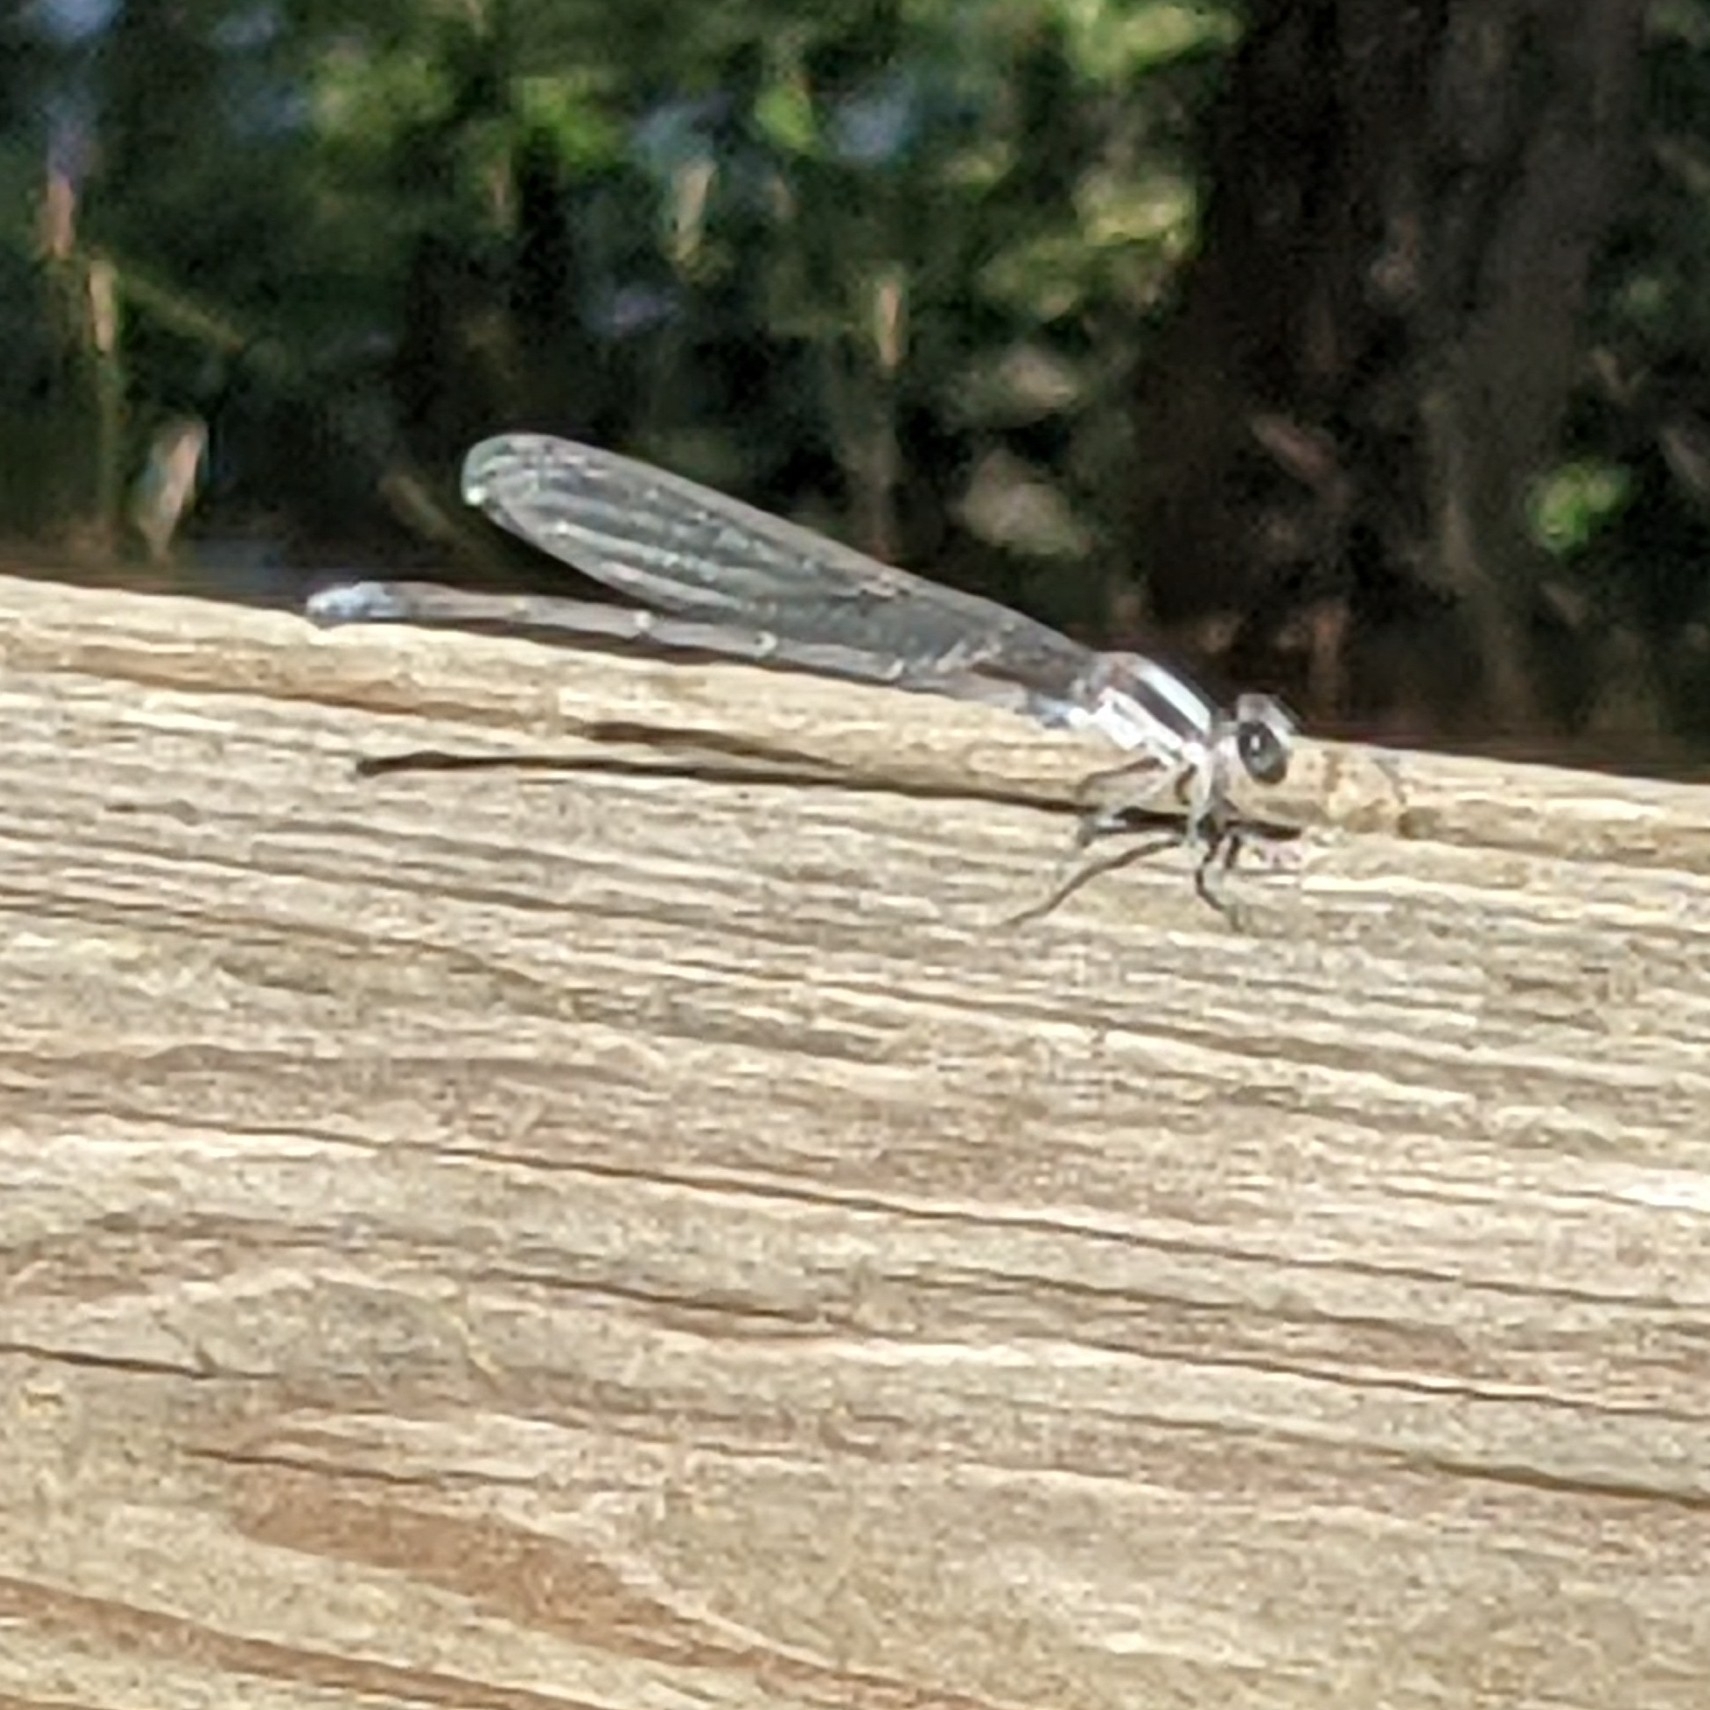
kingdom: Animalia
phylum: Arthropoda
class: Insecta
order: Odonata
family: Coenagrionidae
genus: Argia
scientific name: Argia moesta
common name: Powdered dancer
